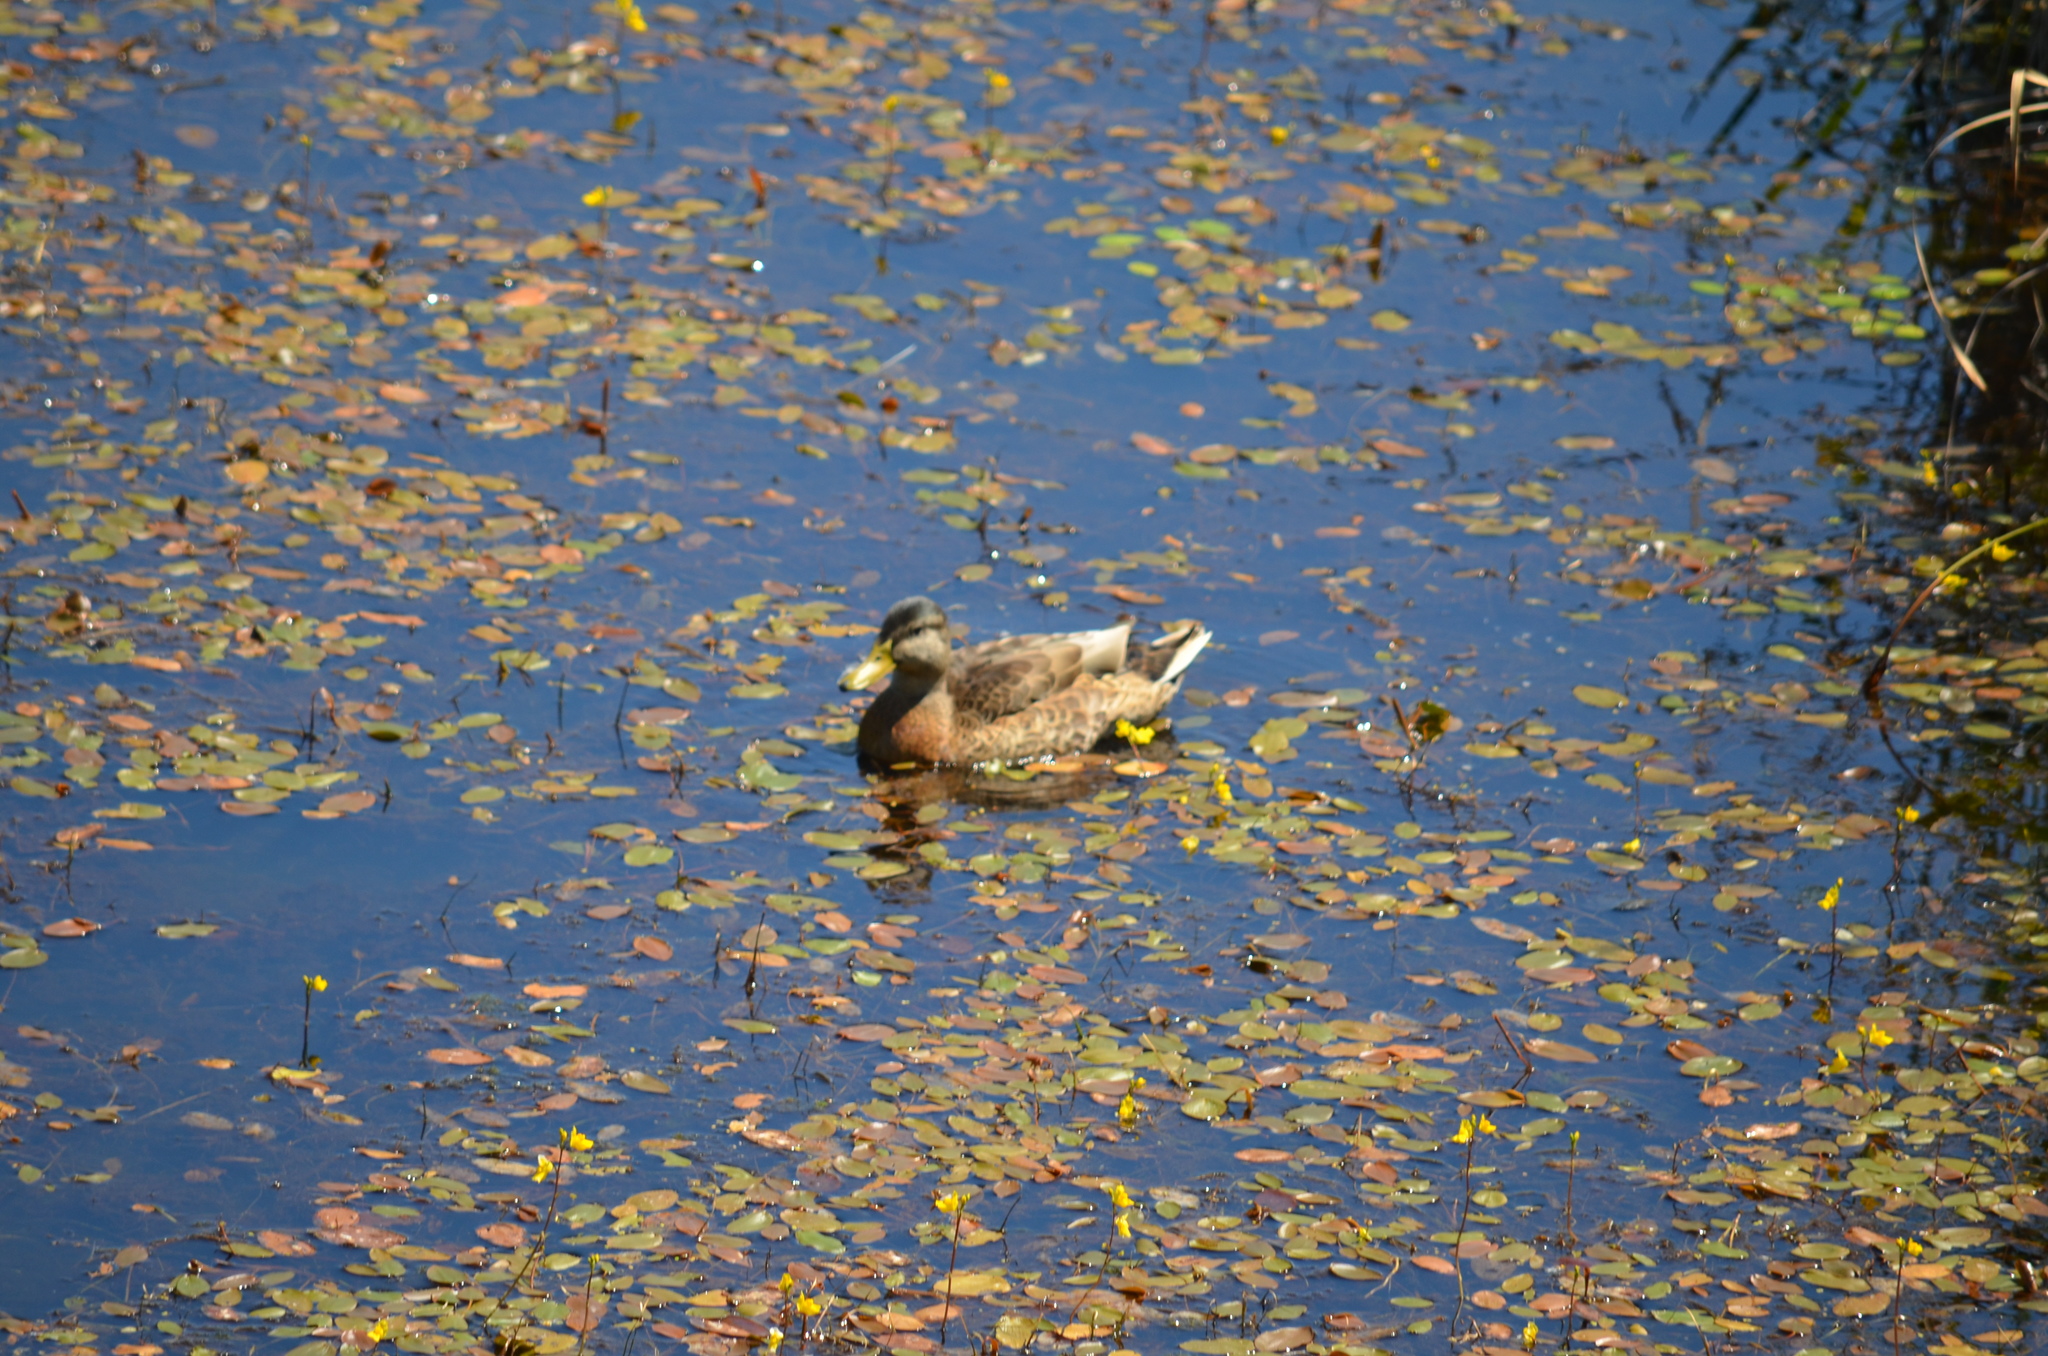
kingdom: Animalia
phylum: Chordata
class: Aves
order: Anseriformes
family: Anatidae
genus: Anas
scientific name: Anas platyrhynchos
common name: Mallard
